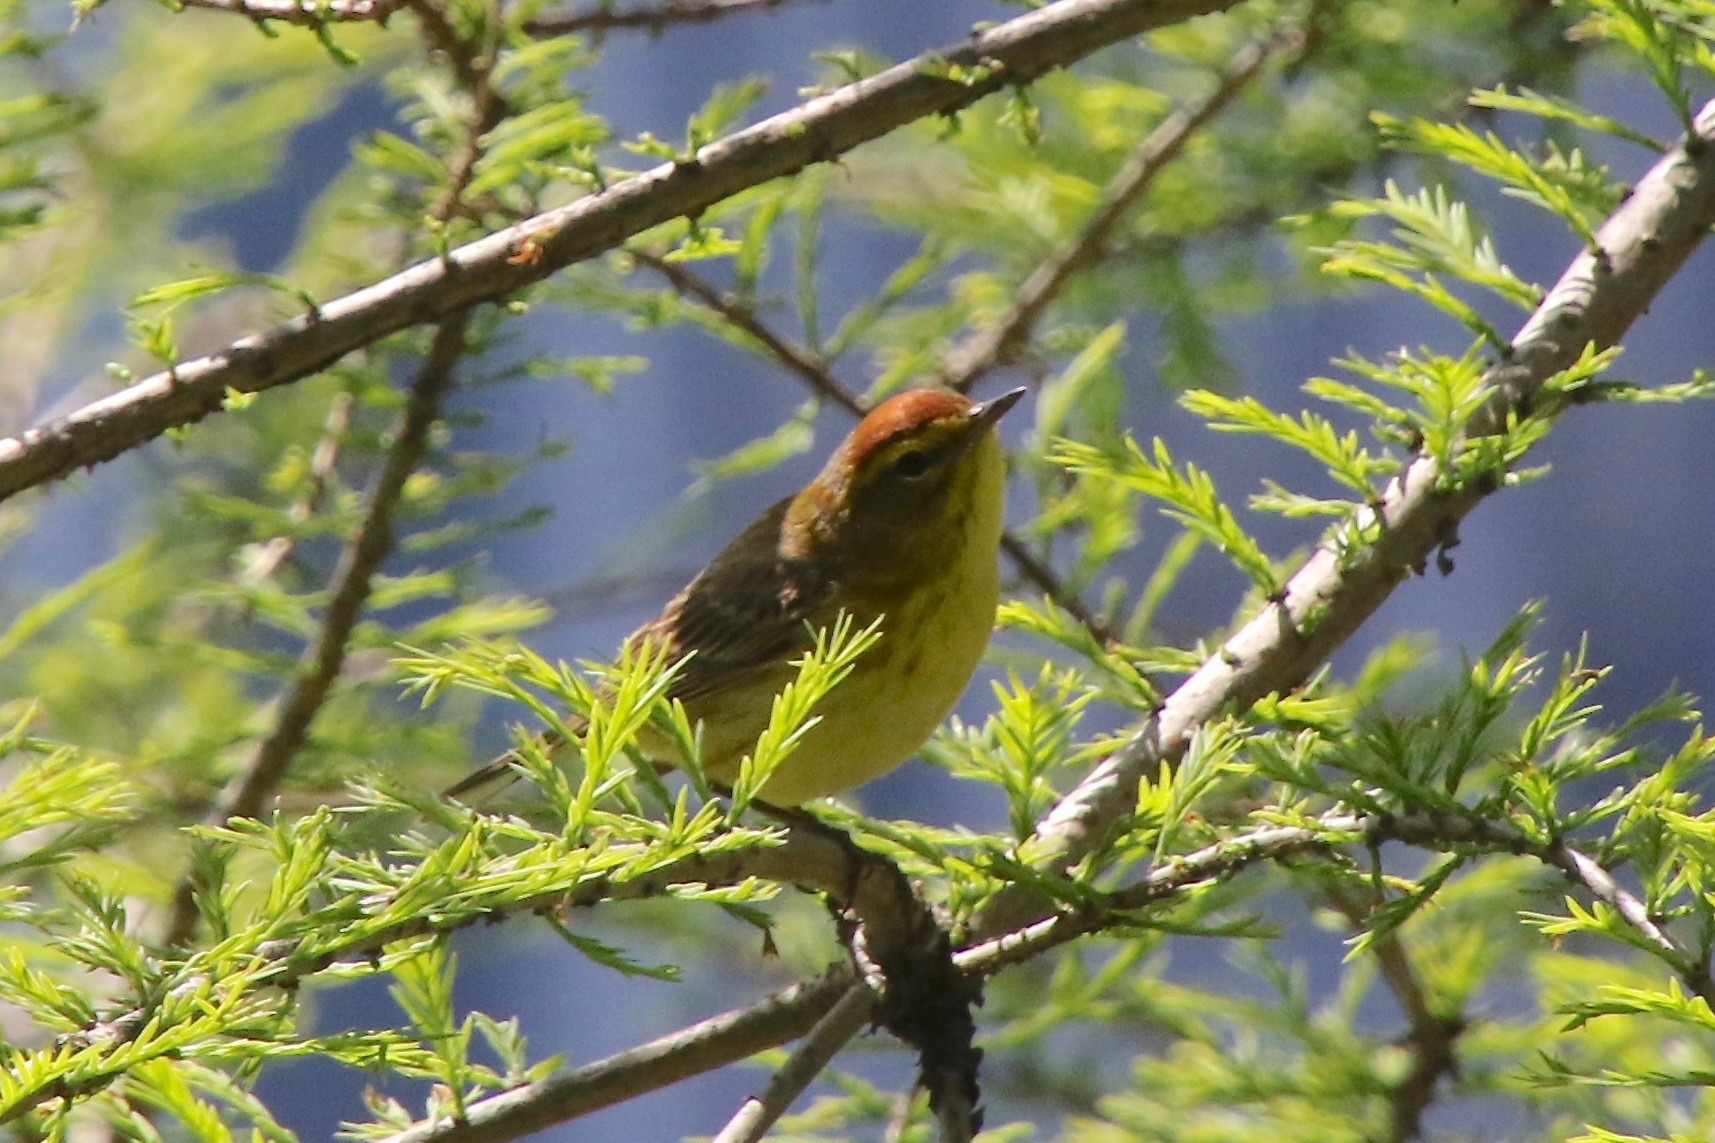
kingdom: Animalia
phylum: Chordata
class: Aves
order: Passeriformes
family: Parulidae
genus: Setophaga
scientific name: Setophaga palmarum
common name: Palm warbler
